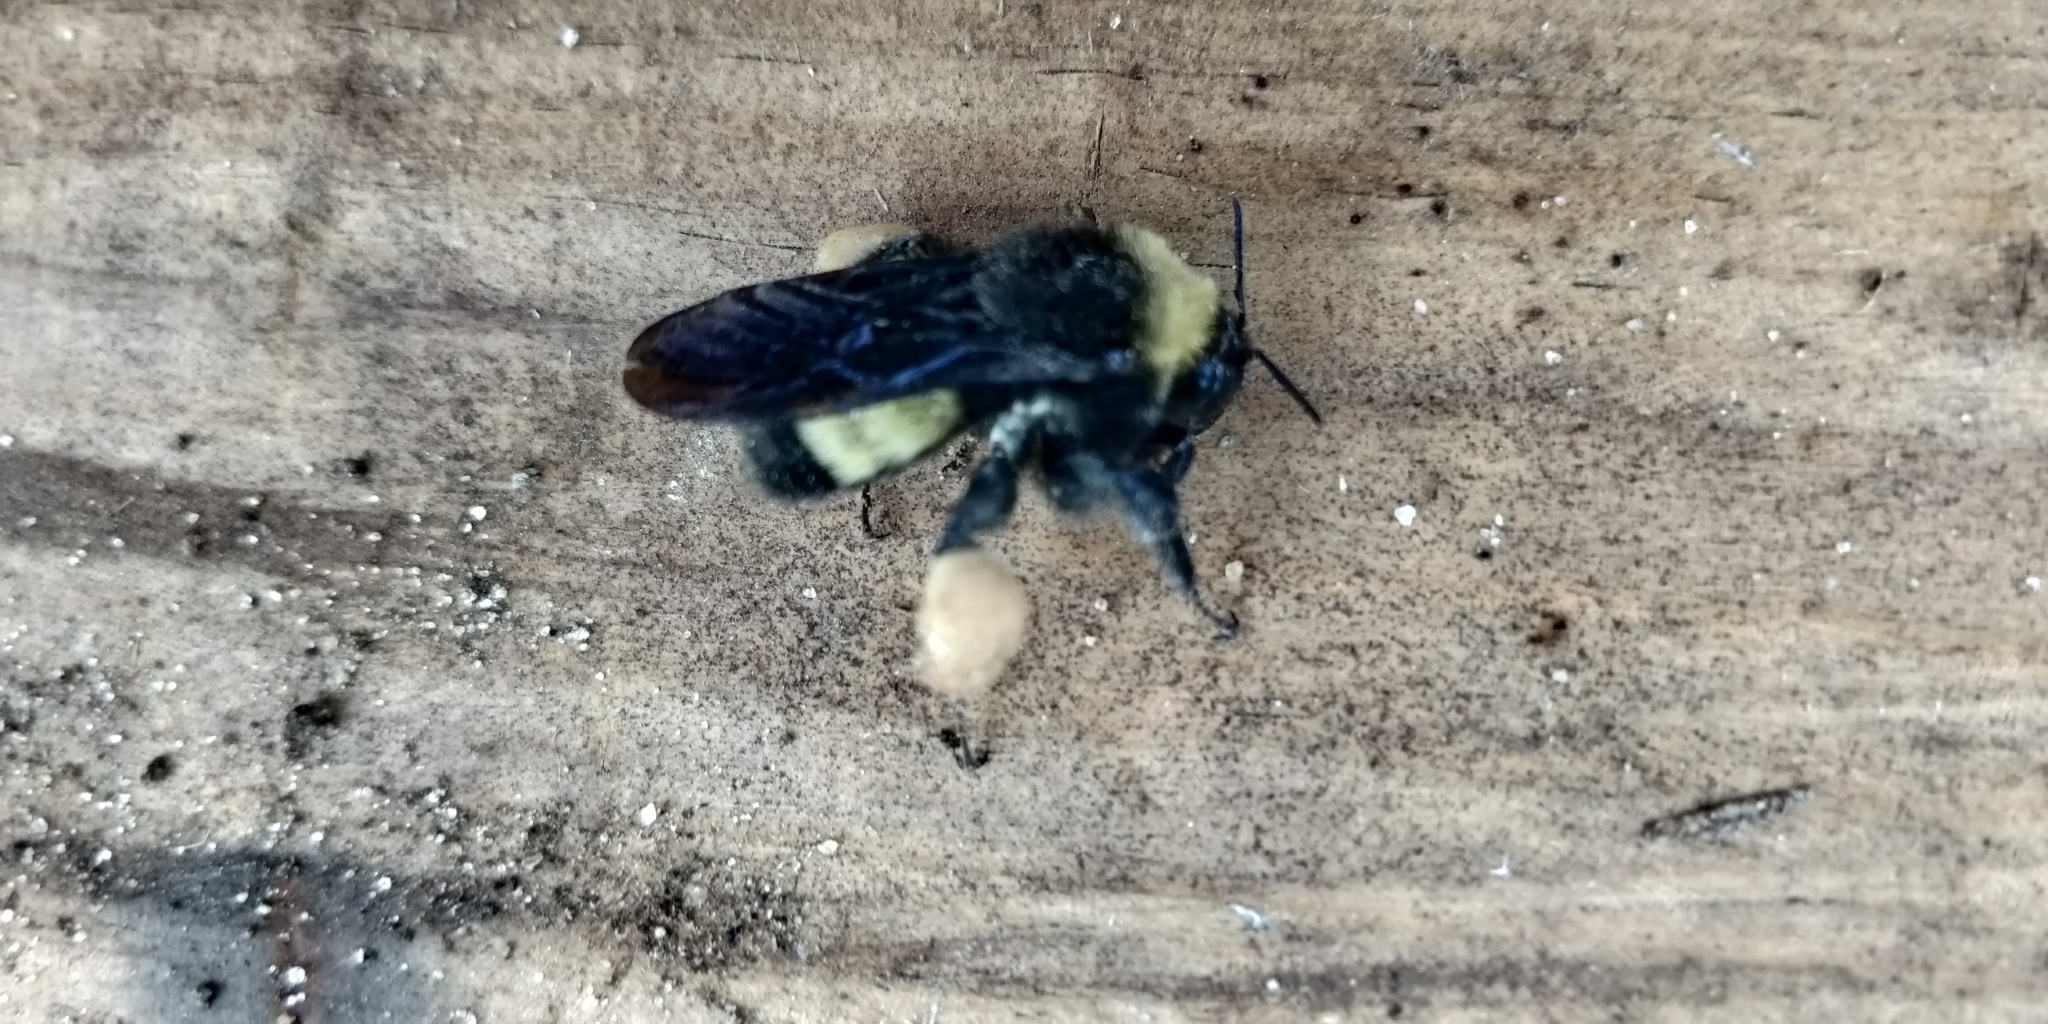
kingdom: Animalia
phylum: Arthropoda
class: Insecta
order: Hymenoptera
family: Apidae
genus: Bombus
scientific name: Bombus pensylvanicus
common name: Bumble bee
